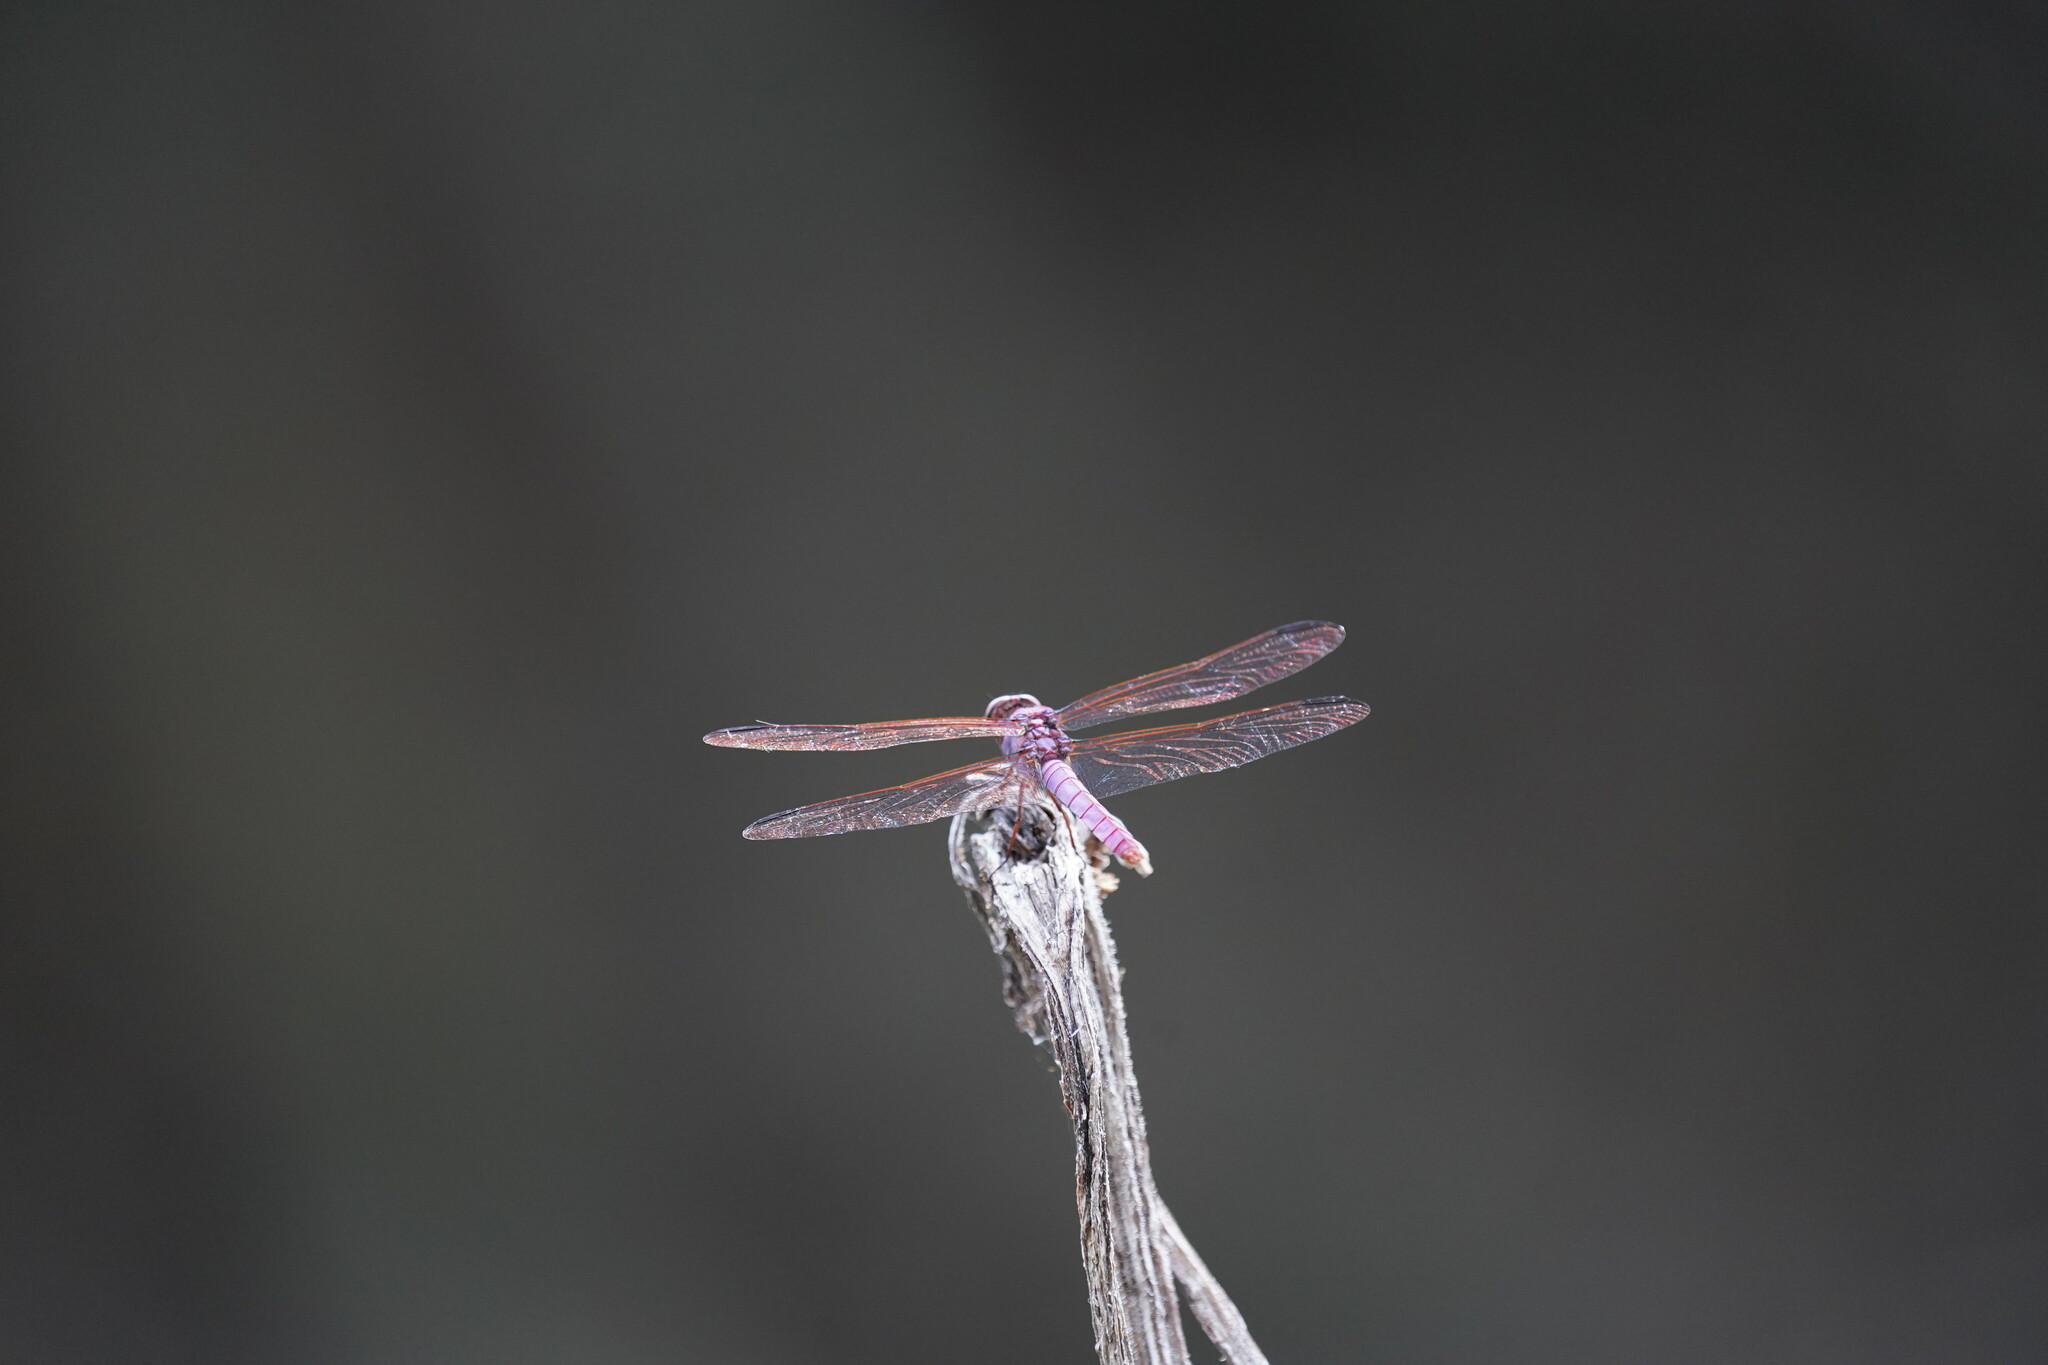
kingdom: Animalia
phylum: Arthropoda
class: Insecta
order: Odonata
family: Libellulidae
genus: Orthemis
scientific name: Orthemis ferruginea
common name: Roseate skimmer
